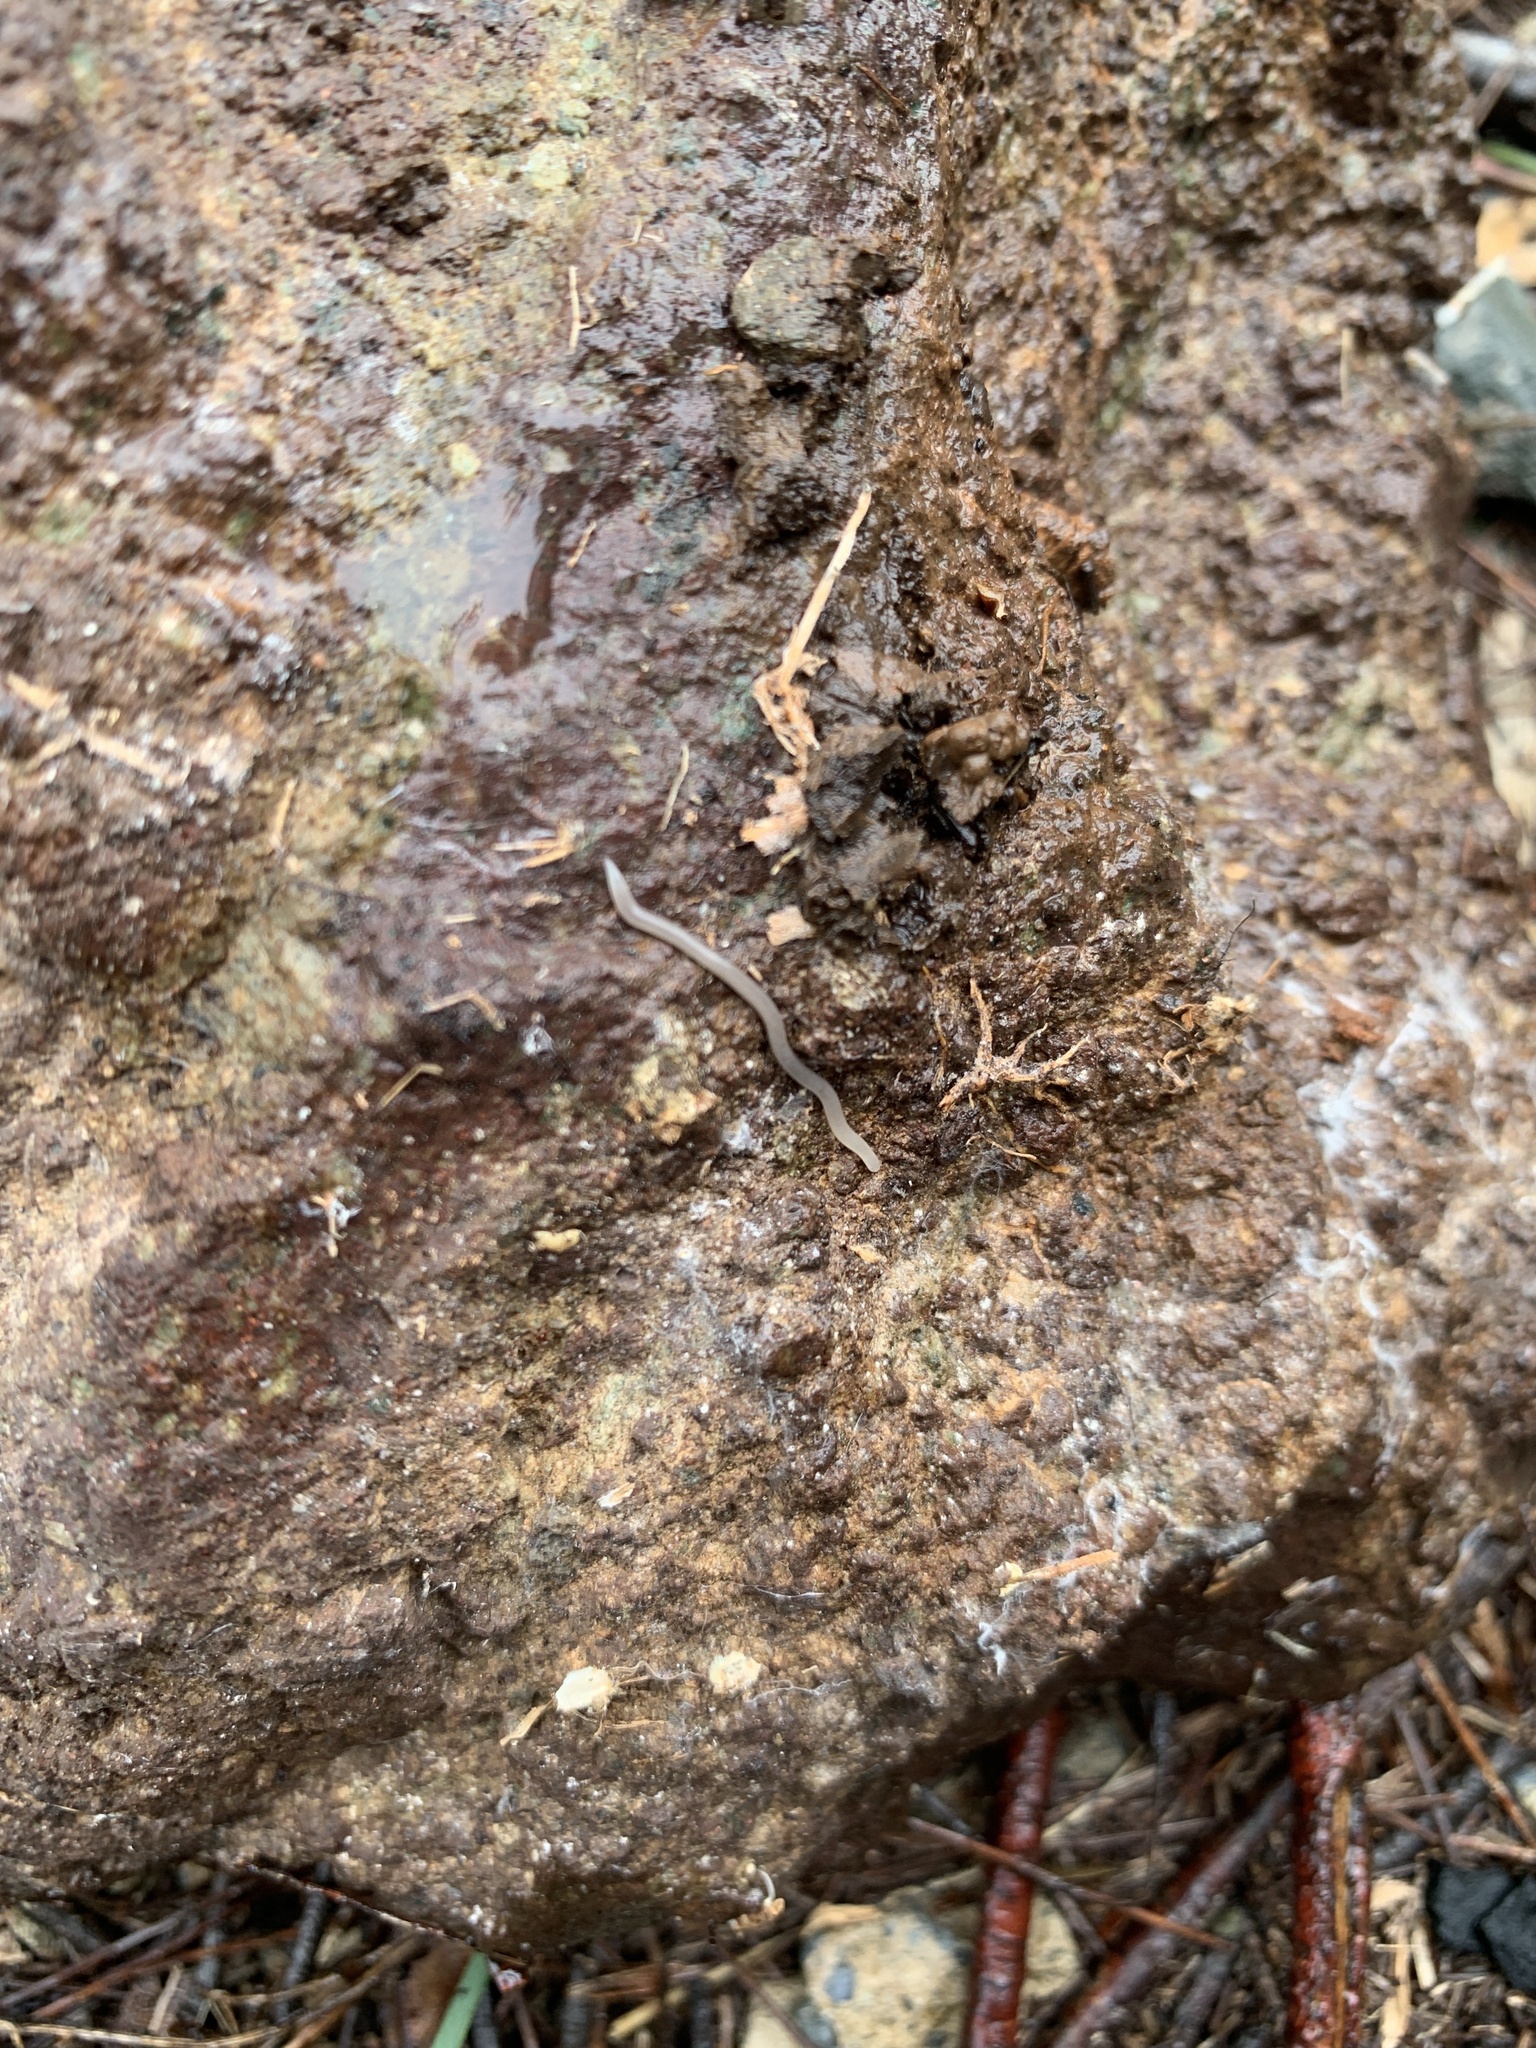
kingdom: Animalia
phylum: Nemertea
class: Hoplonemertea
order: Monostilifera
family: Prosorhochmidae
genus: Geonemertes
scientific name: Geonemertes pelaensis
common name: Land nemertean
